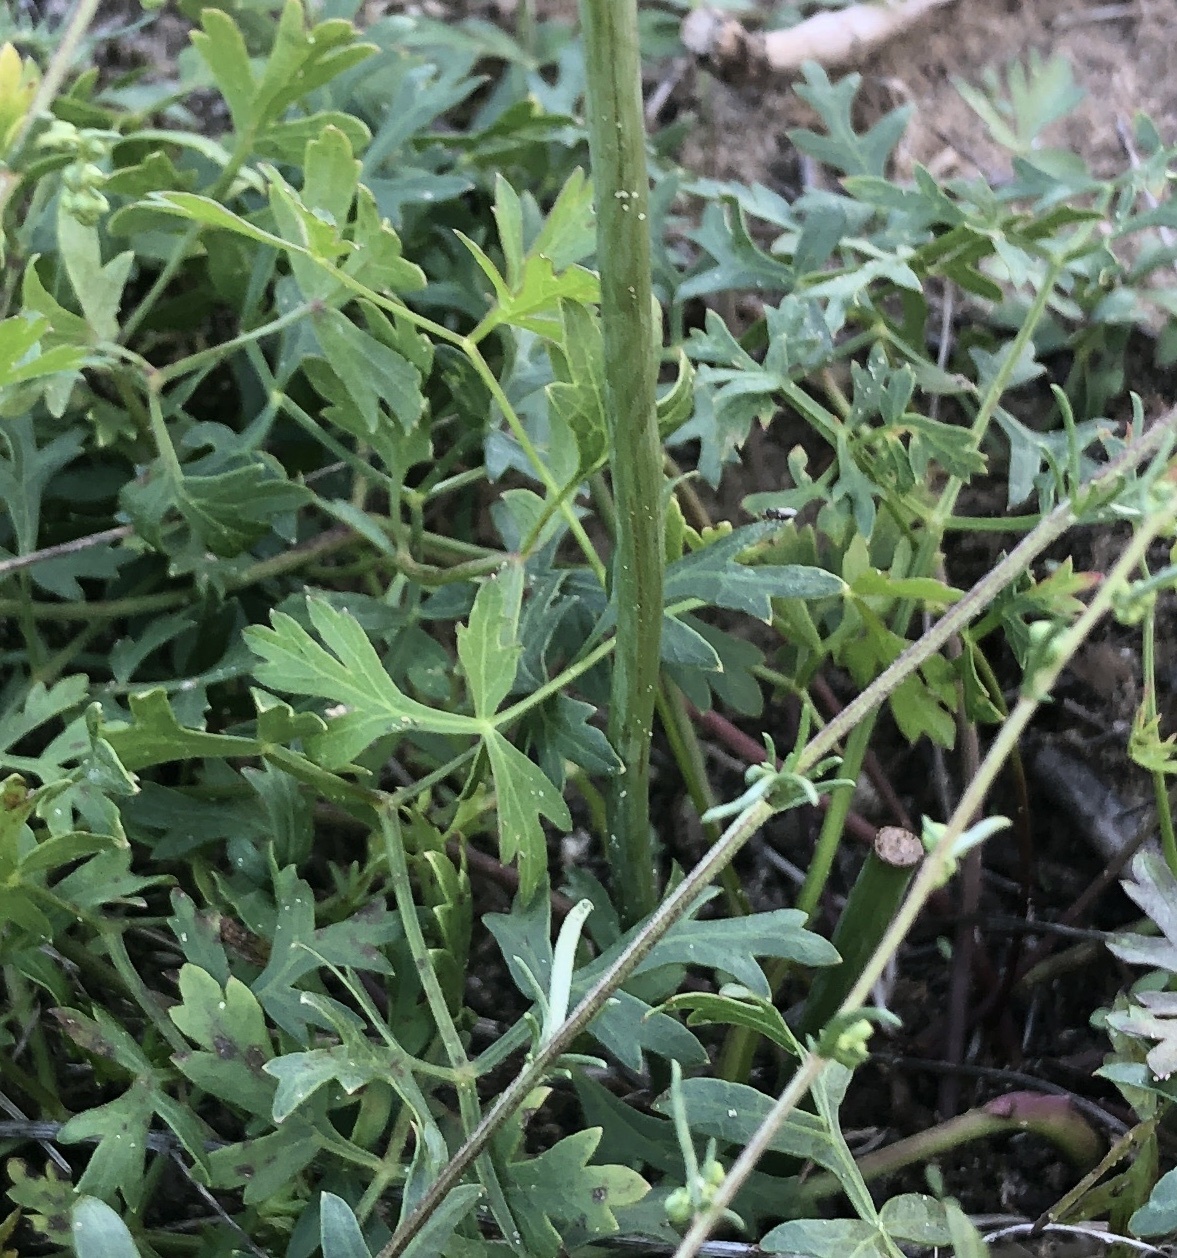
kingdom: Plantae
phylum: Tracheophyta
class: Magnoliopsida
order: Apiales
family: Apiaceae
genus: Oreoselinum
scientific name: Oreoselinum nigrum
